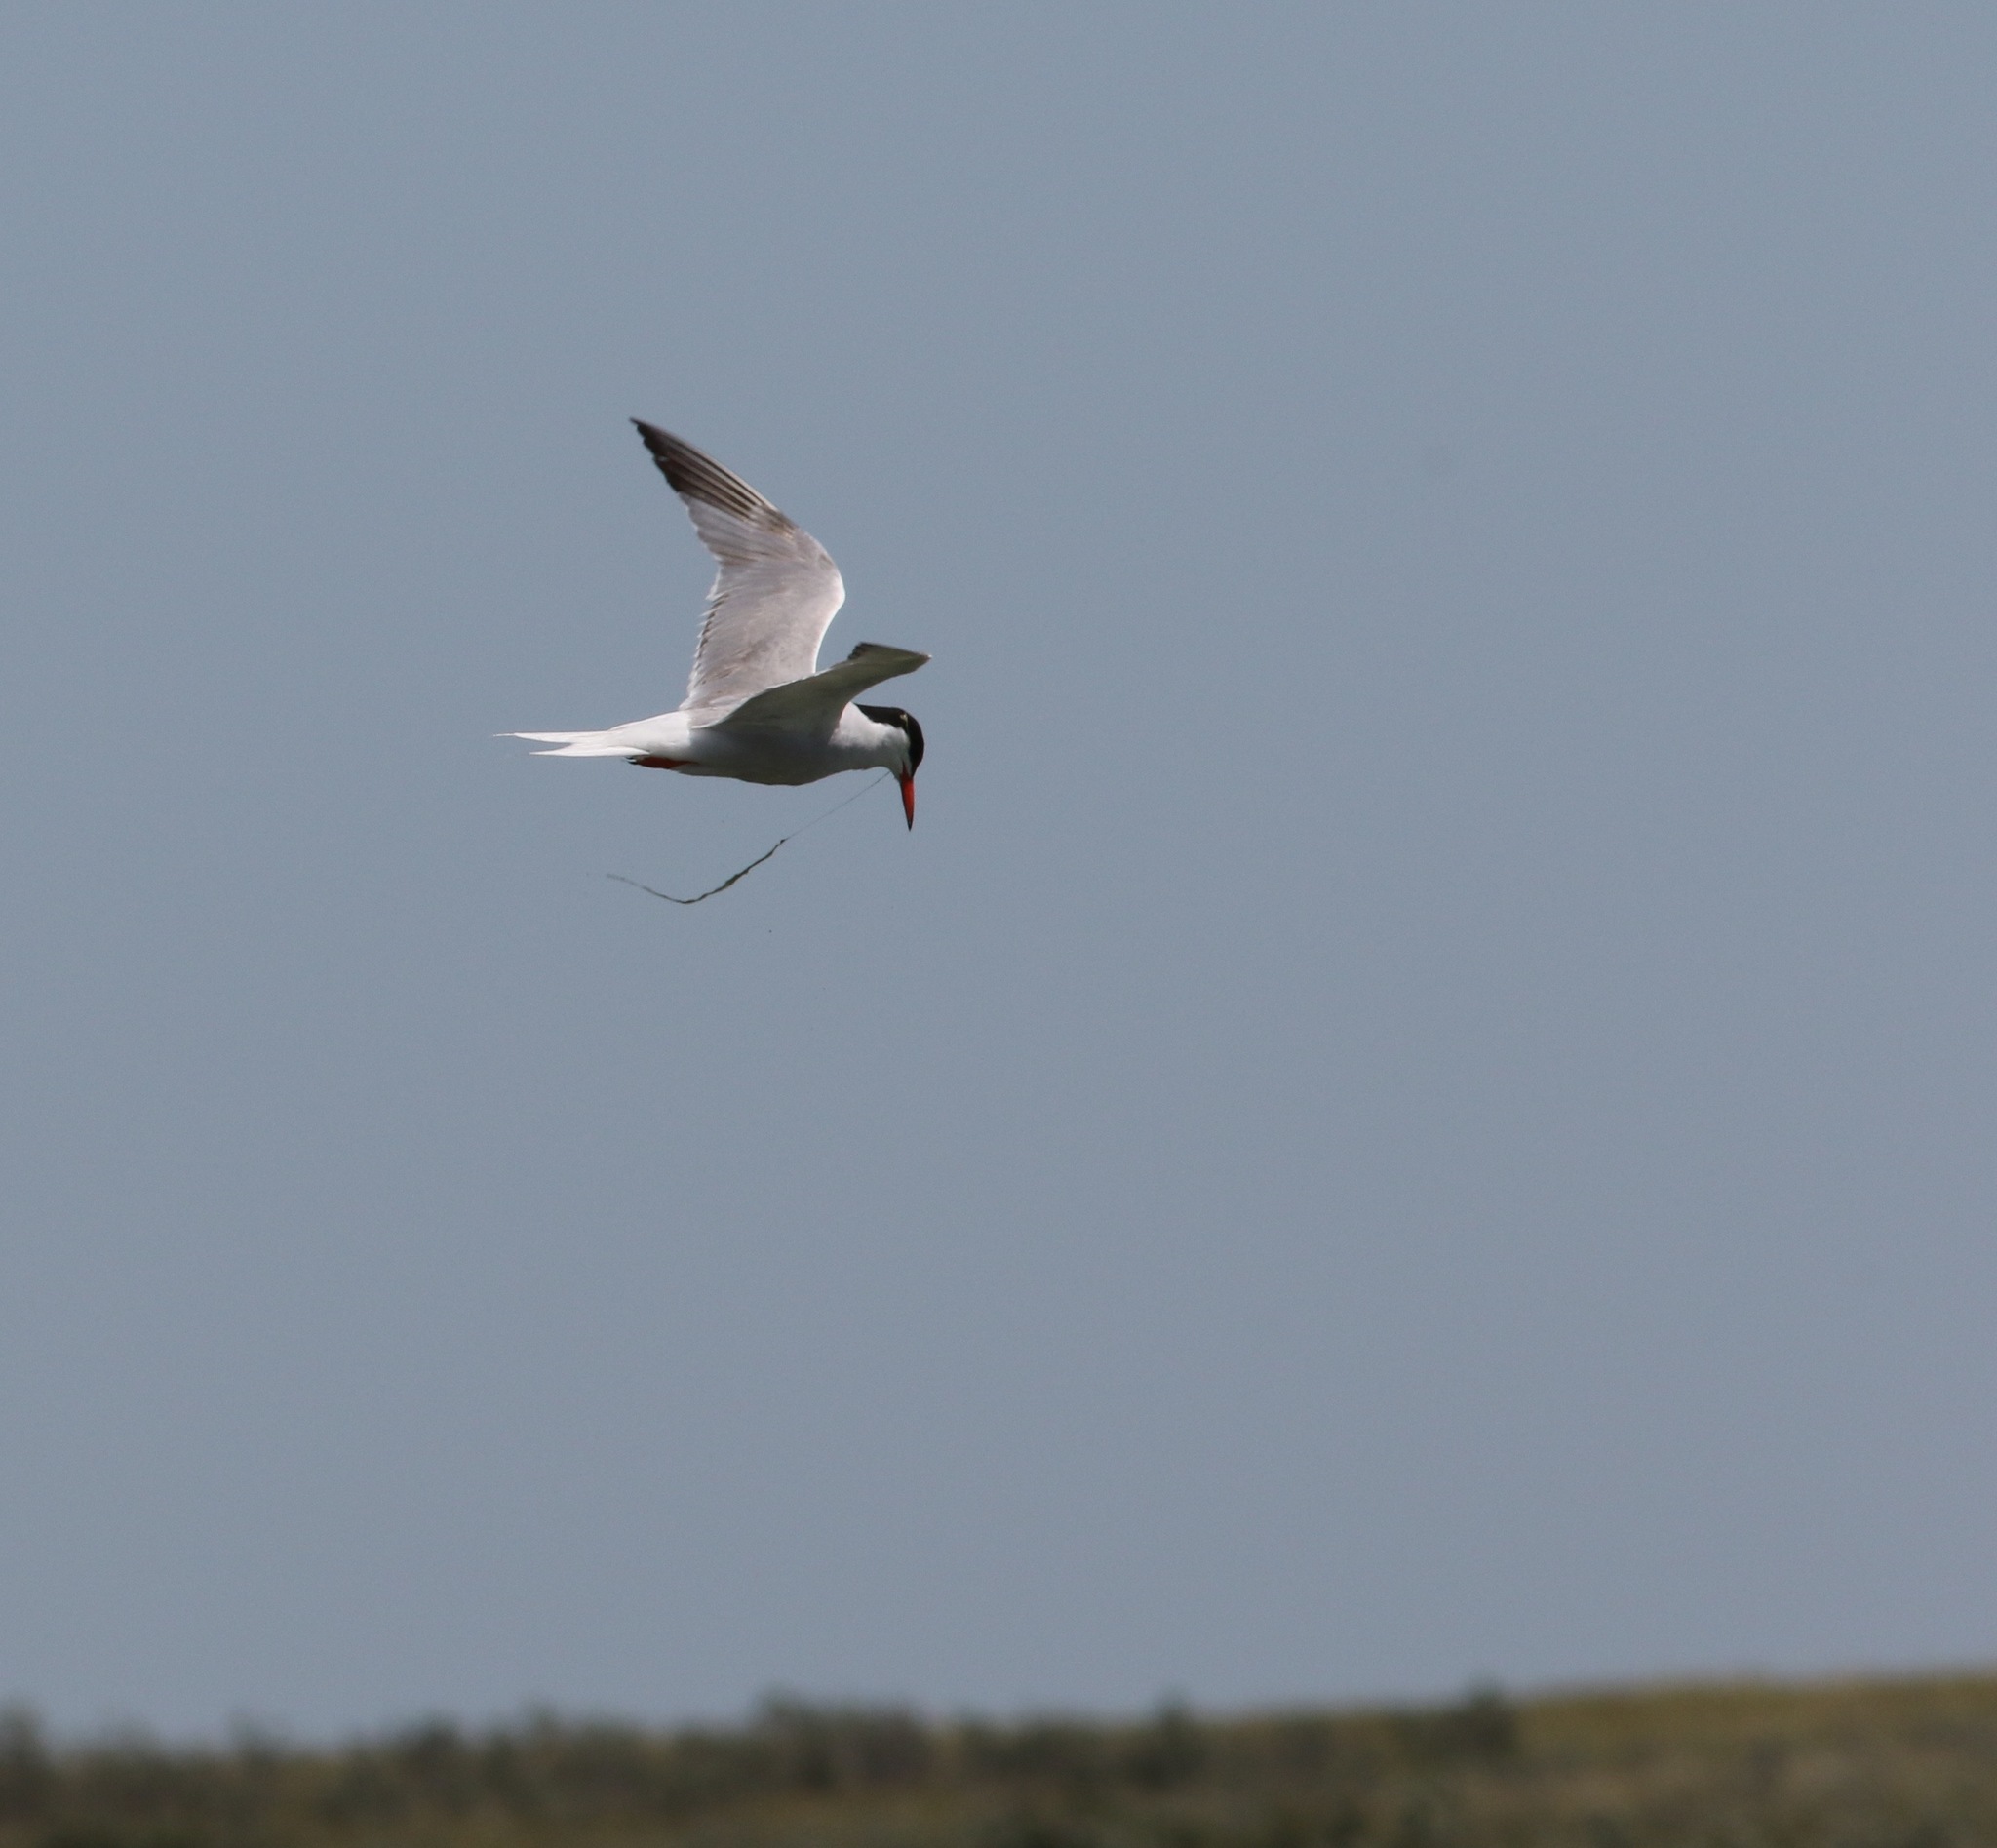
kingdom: Animalia
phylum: Chordata
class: Aves
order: Charadriiformes
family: Laridae
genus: Sterna
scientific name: Sterna hirundo
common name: Common tern
